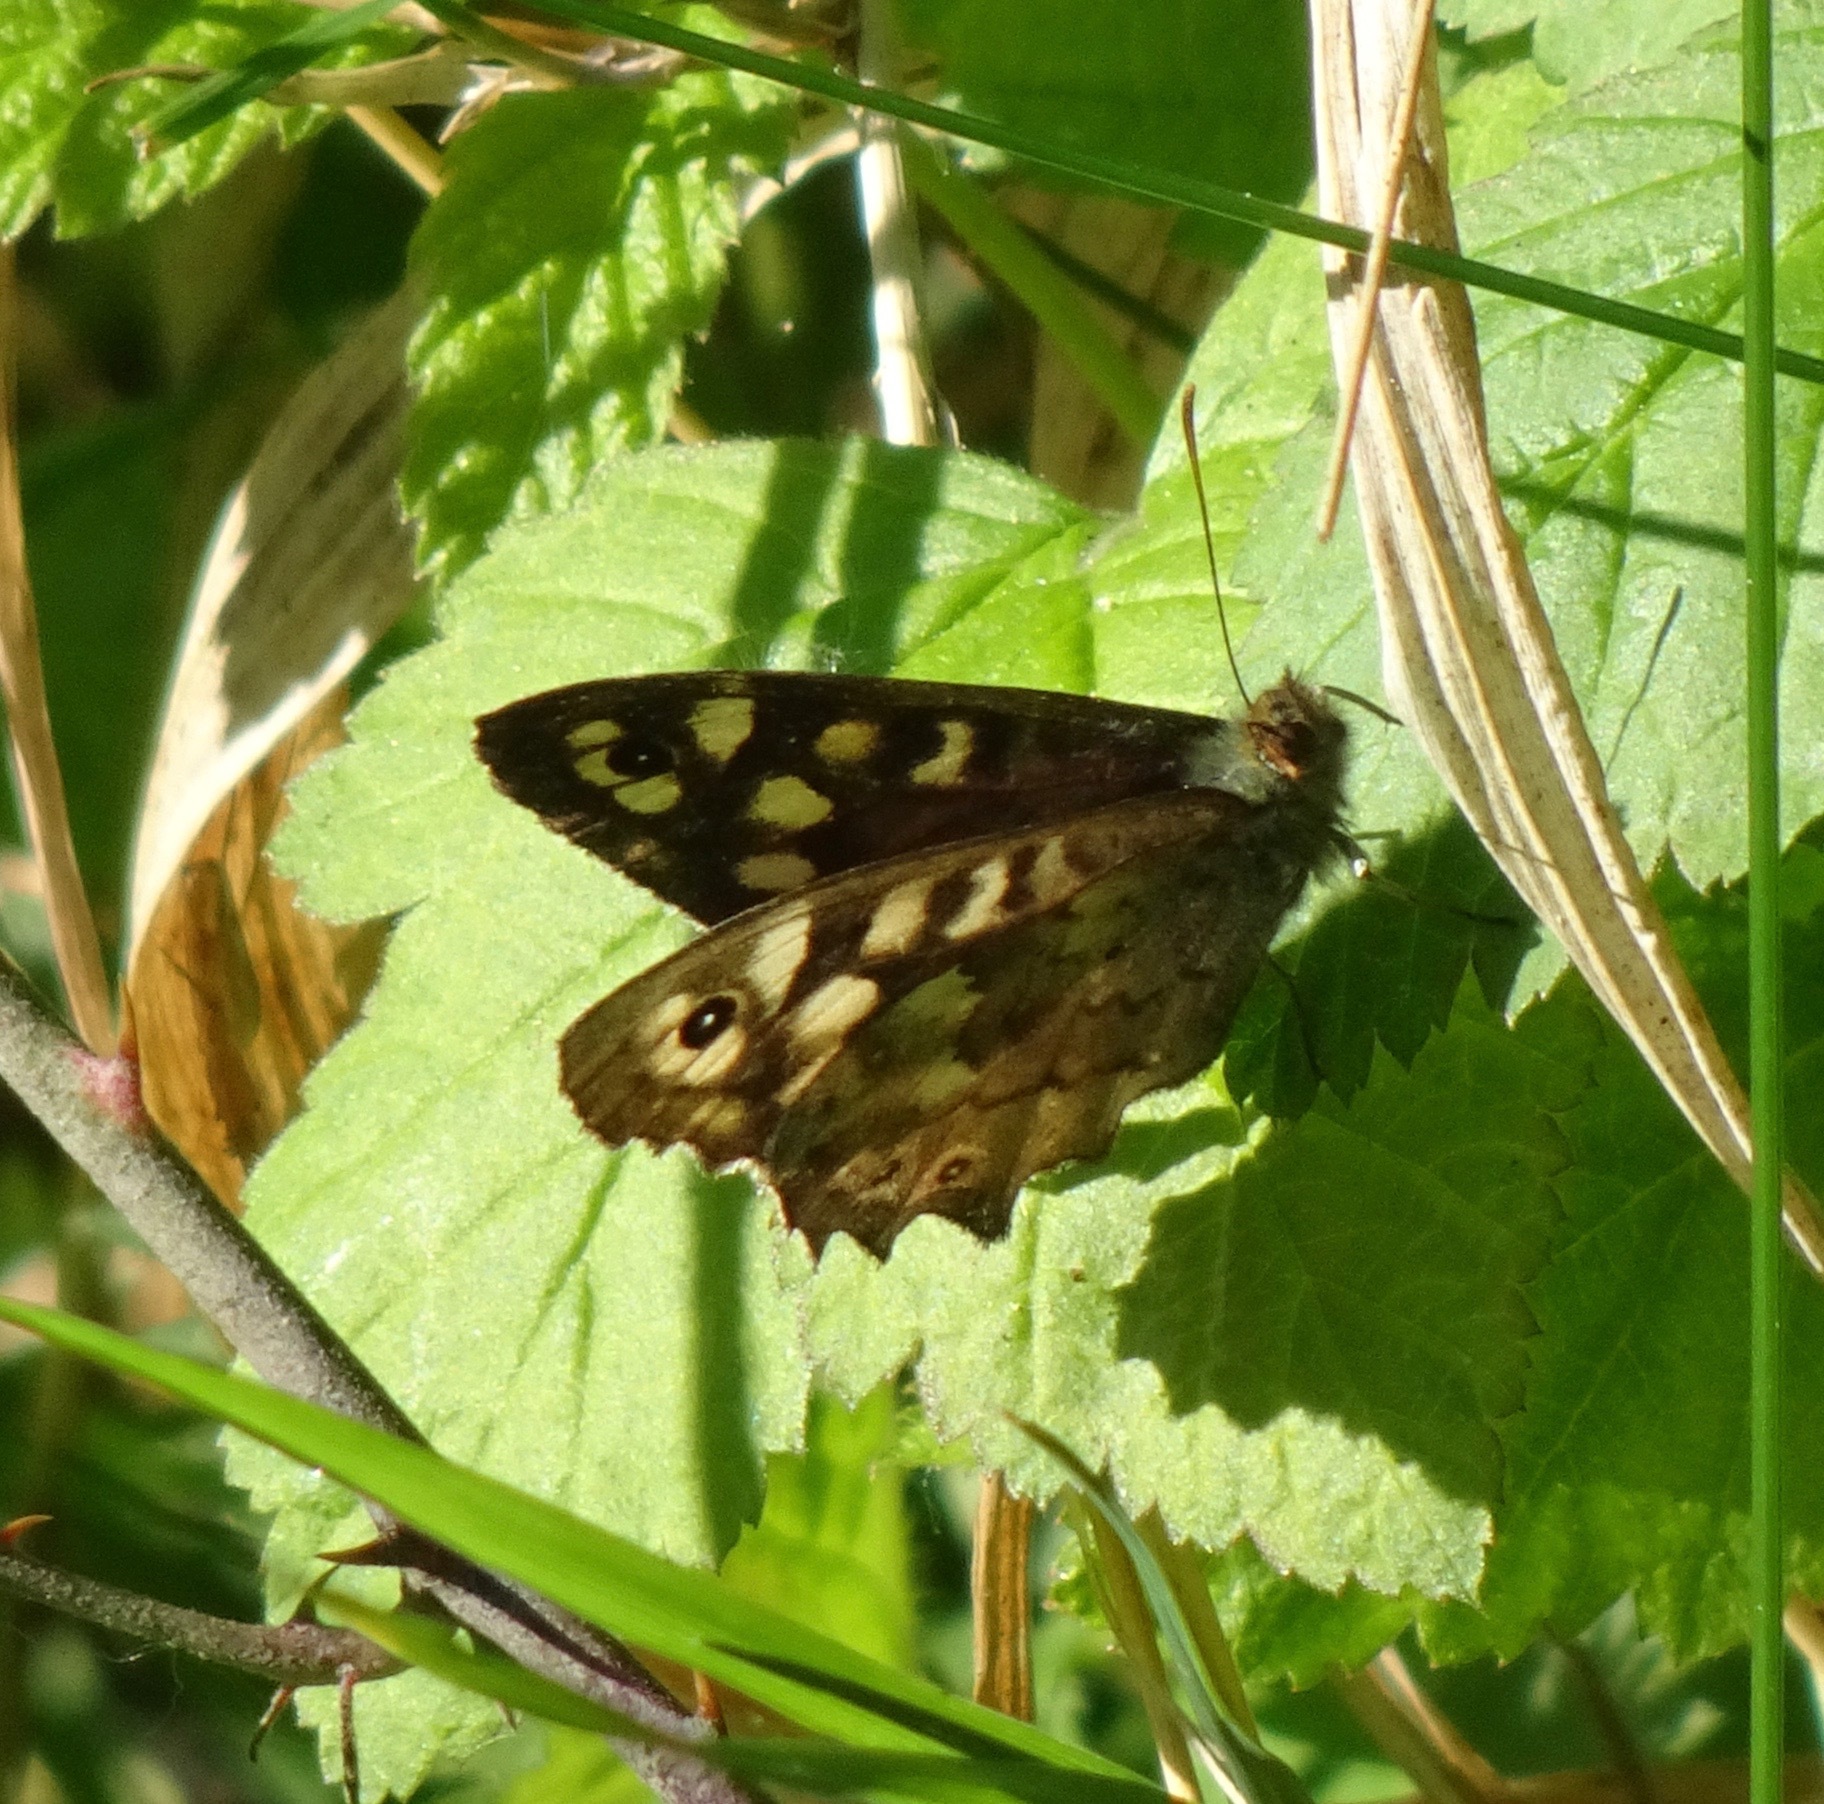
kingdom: Animalia
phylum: Arthropoda
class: Insecta
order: Lepidoptera
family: Nymphalidae
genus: Pararge
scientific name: Pararge aegeria
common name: Speckled wood
